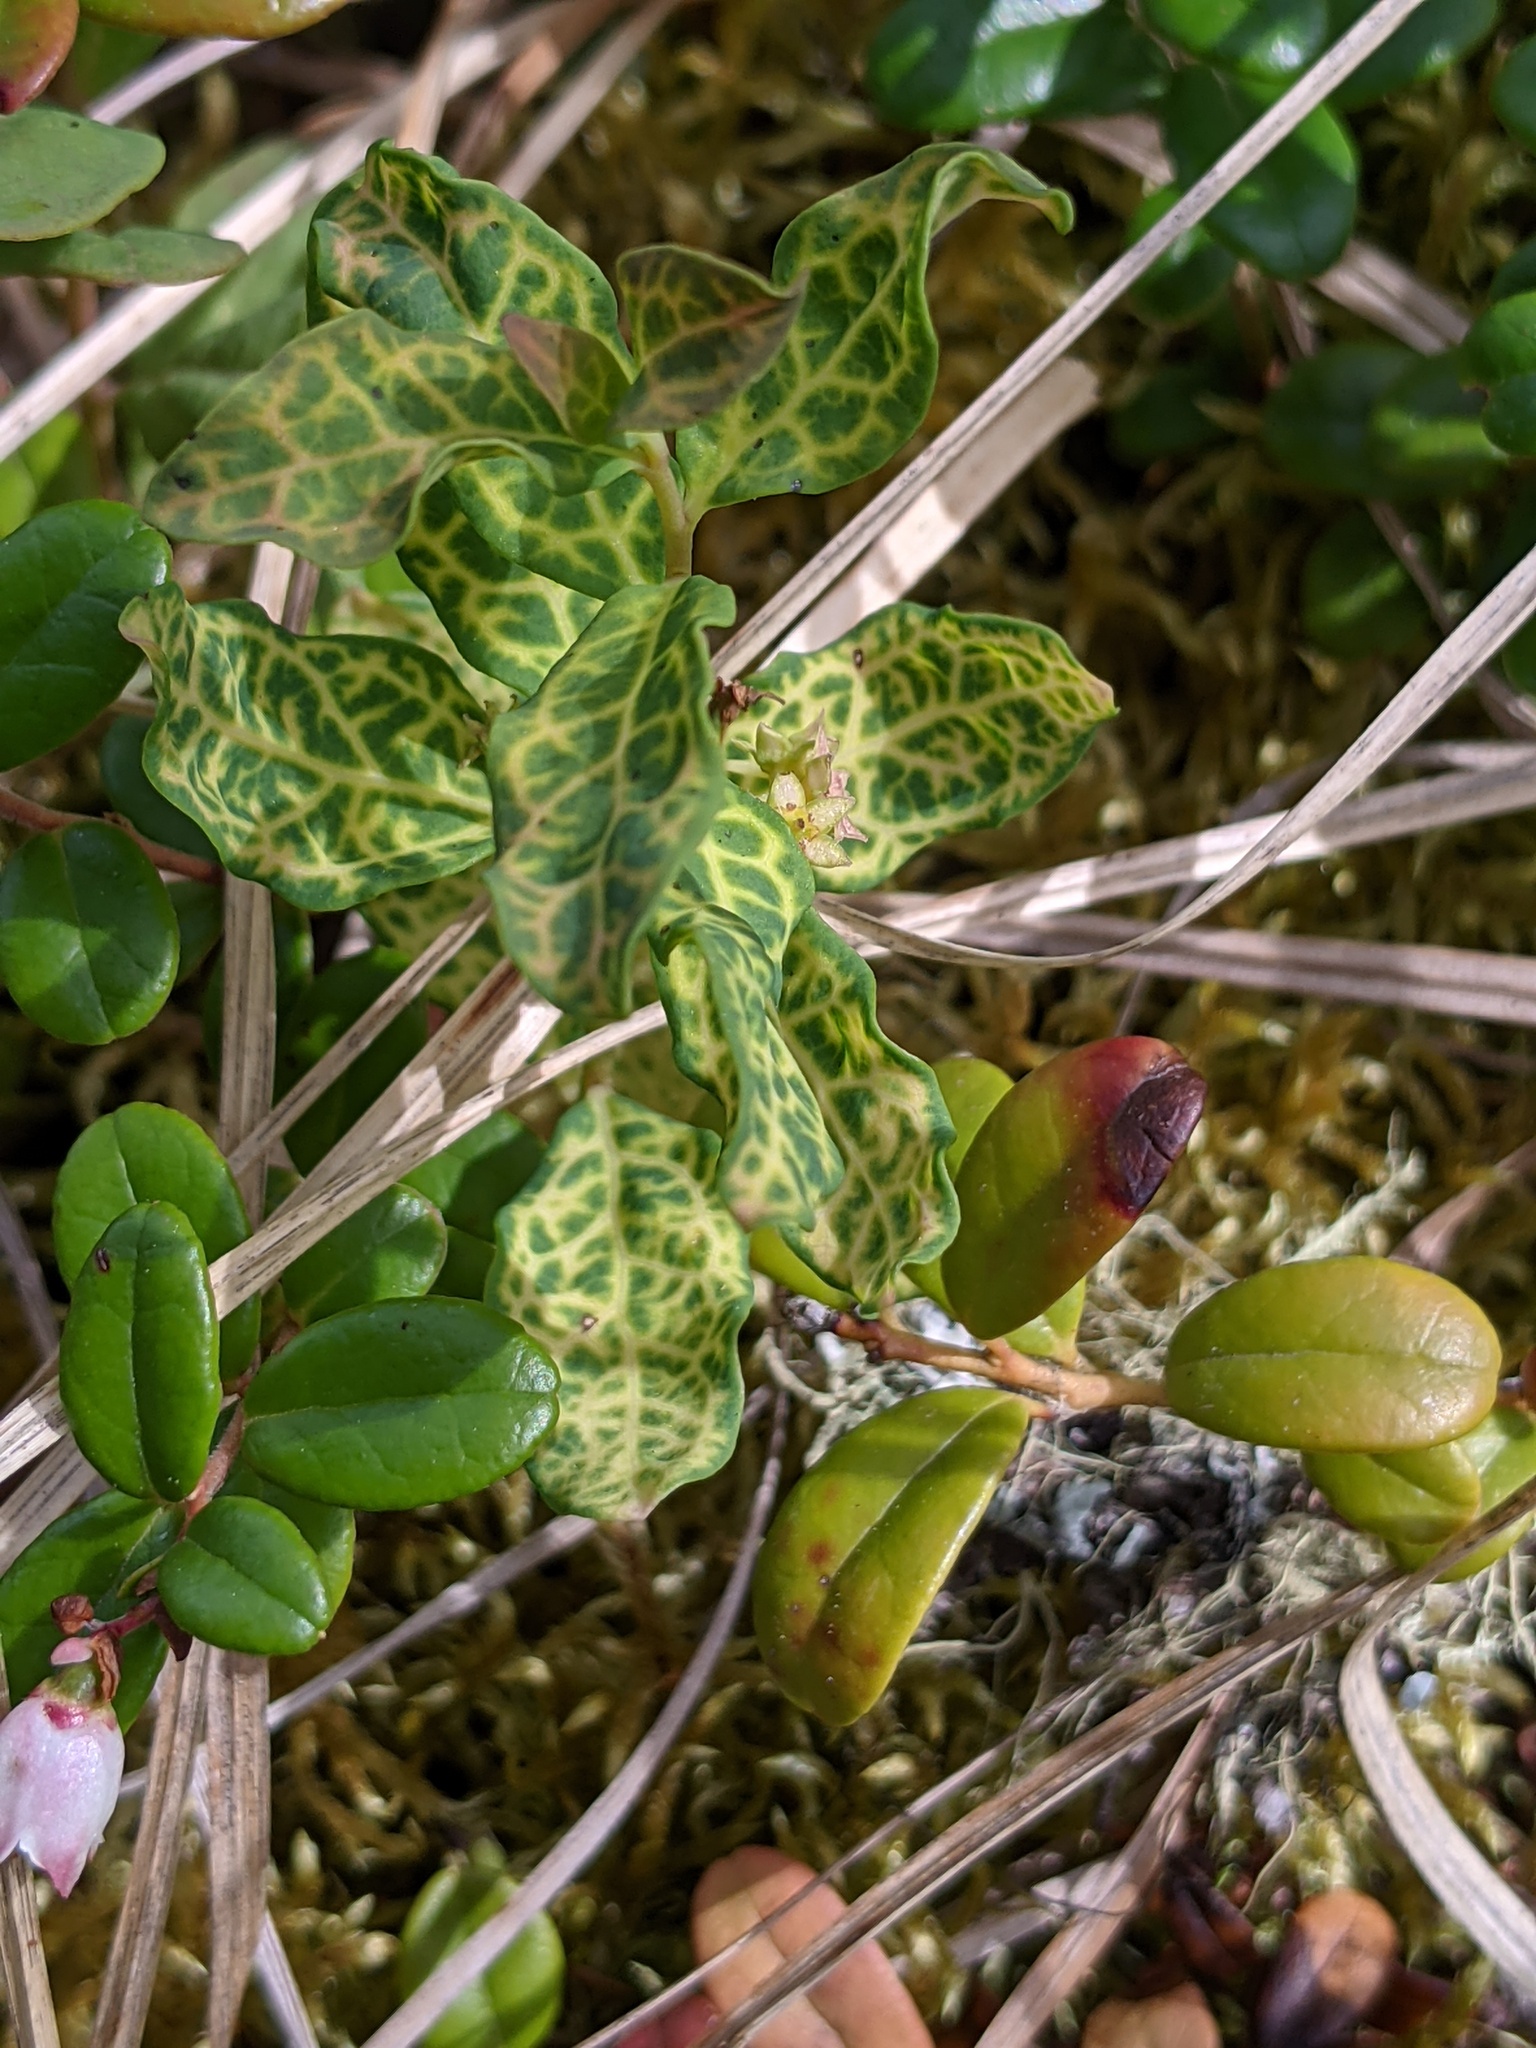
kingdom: Plantae
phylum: Tracheophyta
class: Magnoliopsida
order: Santalales
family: Comandraceae
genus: Geocaulon
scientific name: Geocaulon lividum
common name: Earthberry
